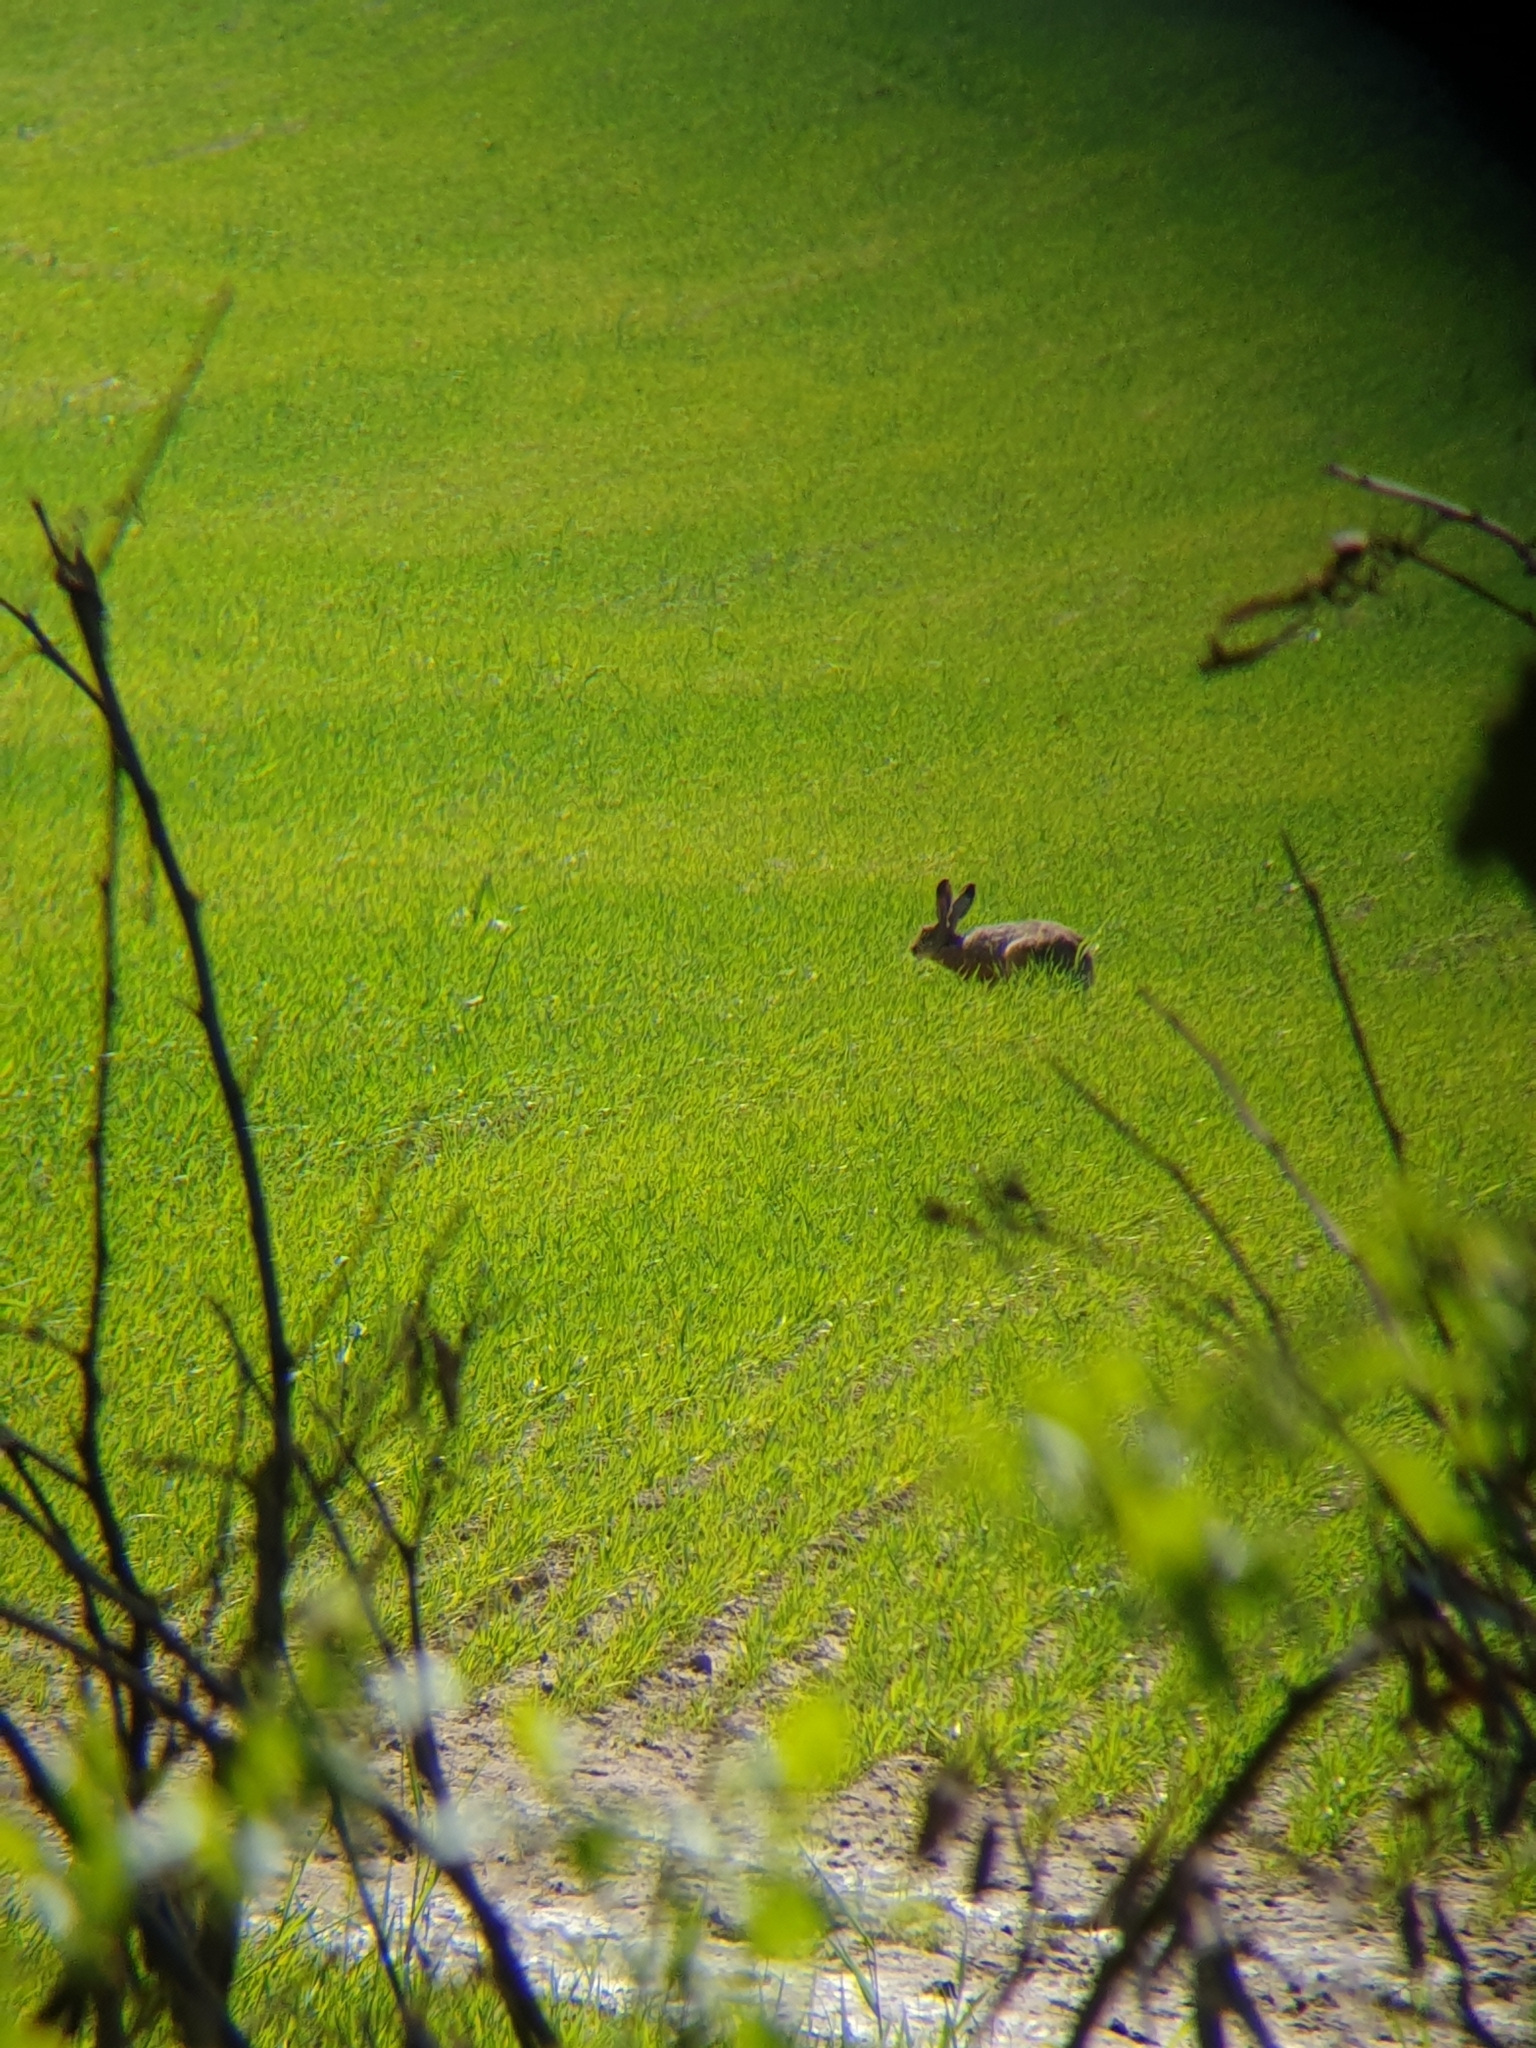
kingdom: Animalia
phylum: Chordata
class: Mammalia
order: Lagomorpha
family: Leporidae
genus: Lepus
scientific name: Lepus europaeus
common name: European hare
